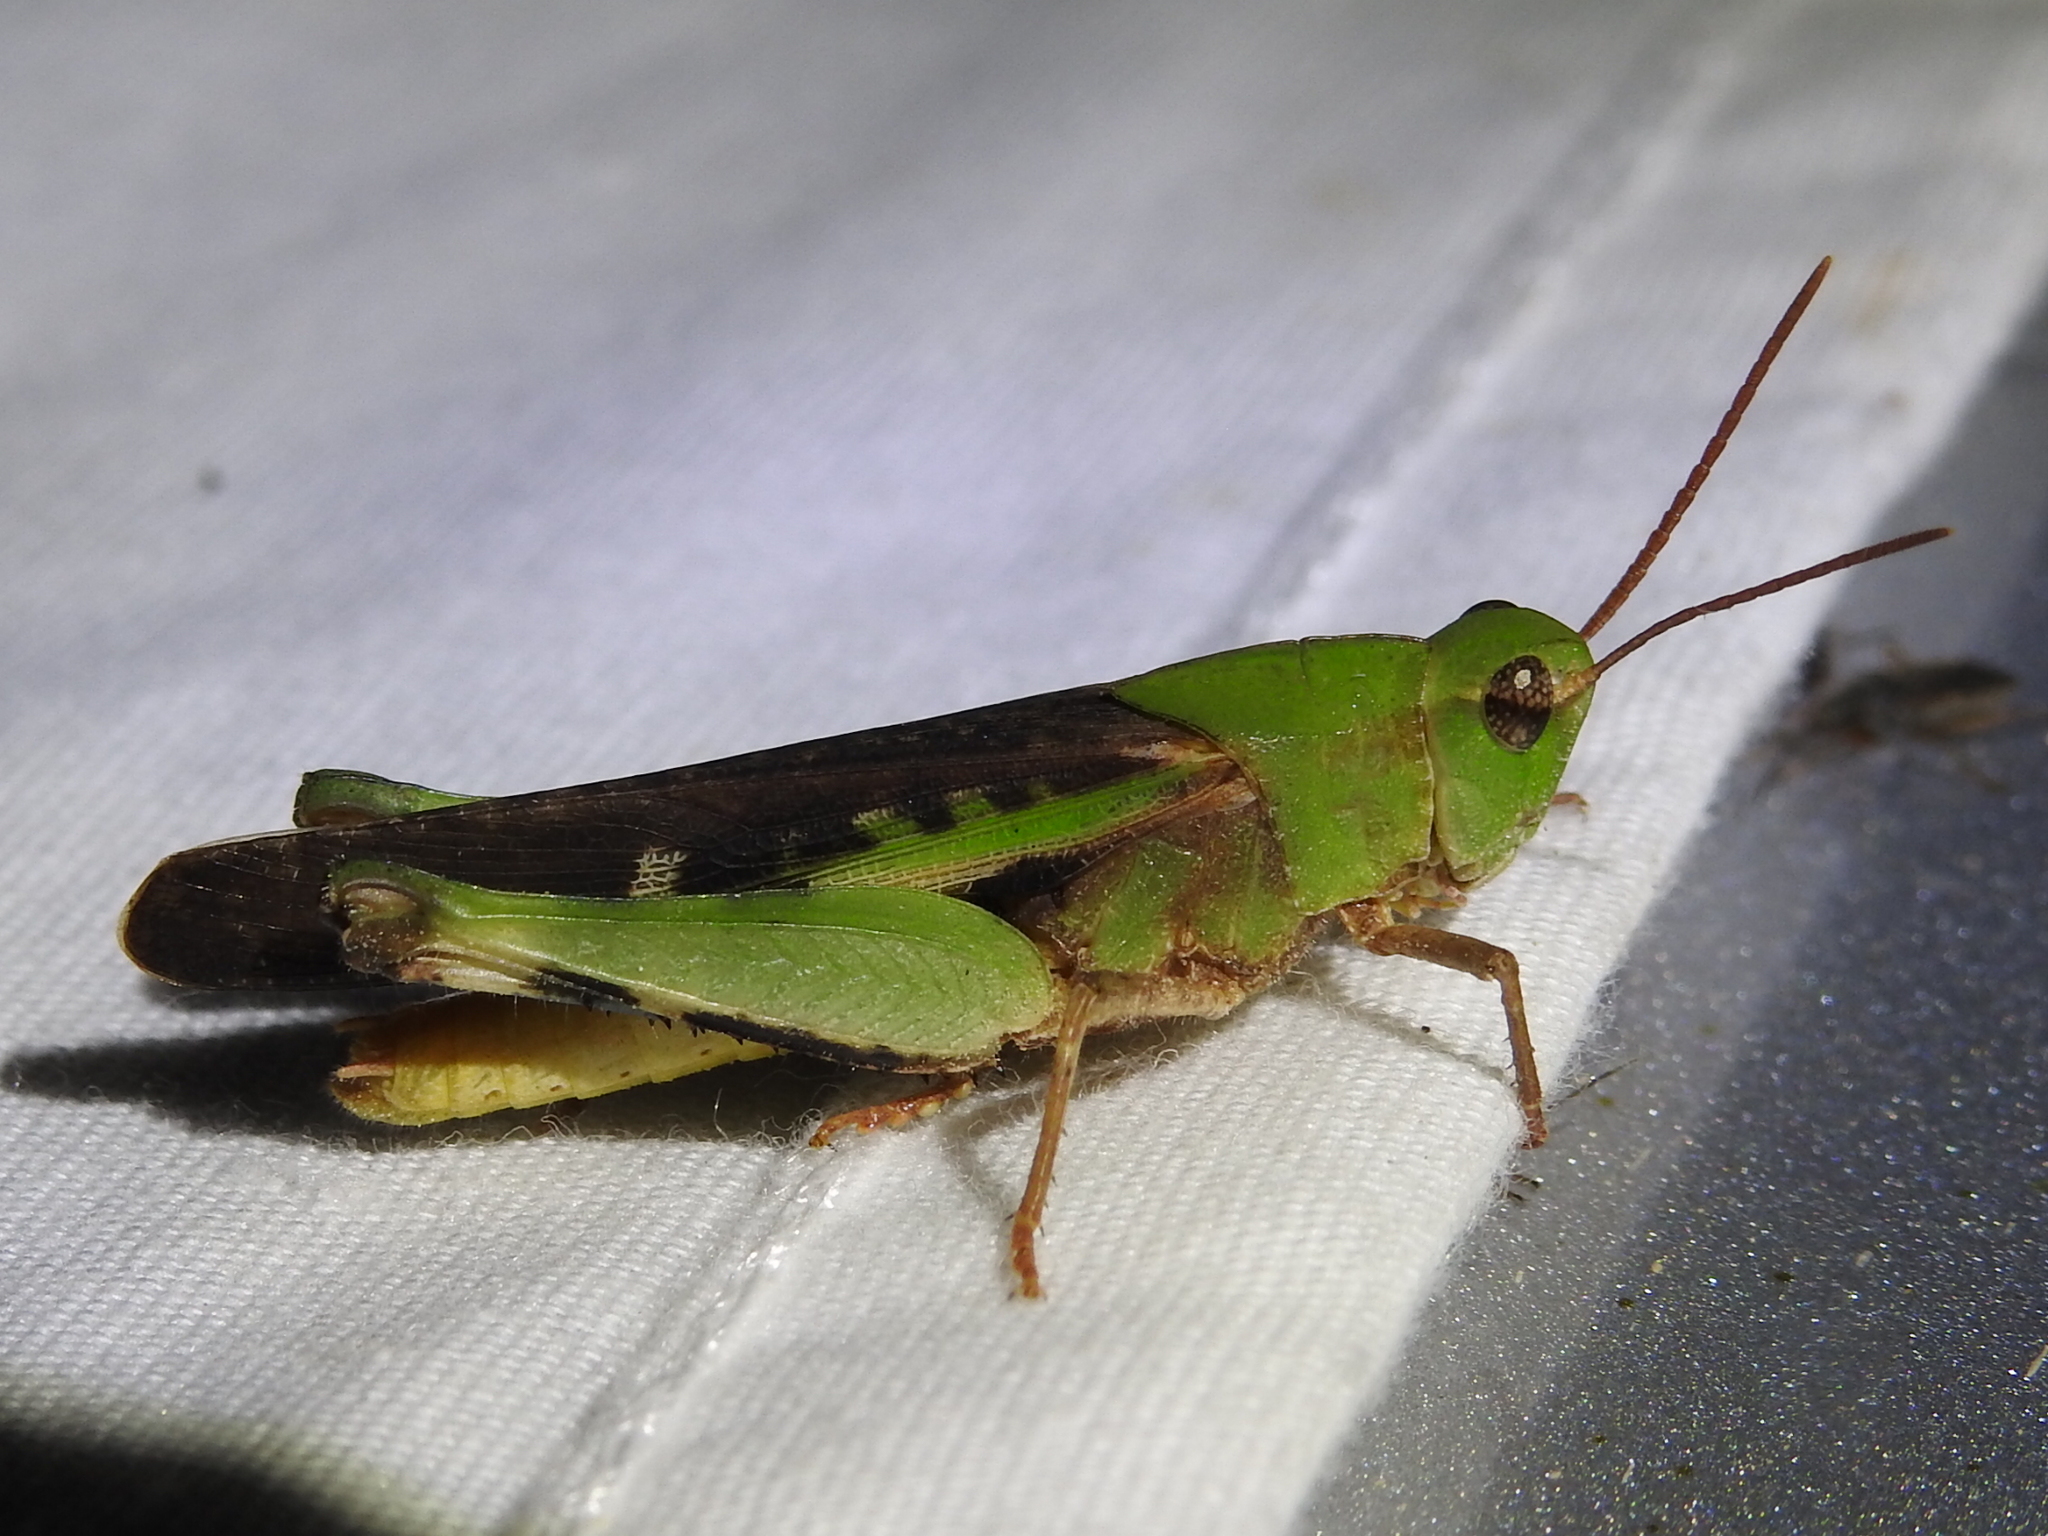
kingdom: Animalia
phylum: Arthropoda
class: Insecta
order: Orthoptera
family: Acrididae
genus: Chortophaga
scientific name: Chortophaga viridifasciata
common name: Green-striped grasshopper
